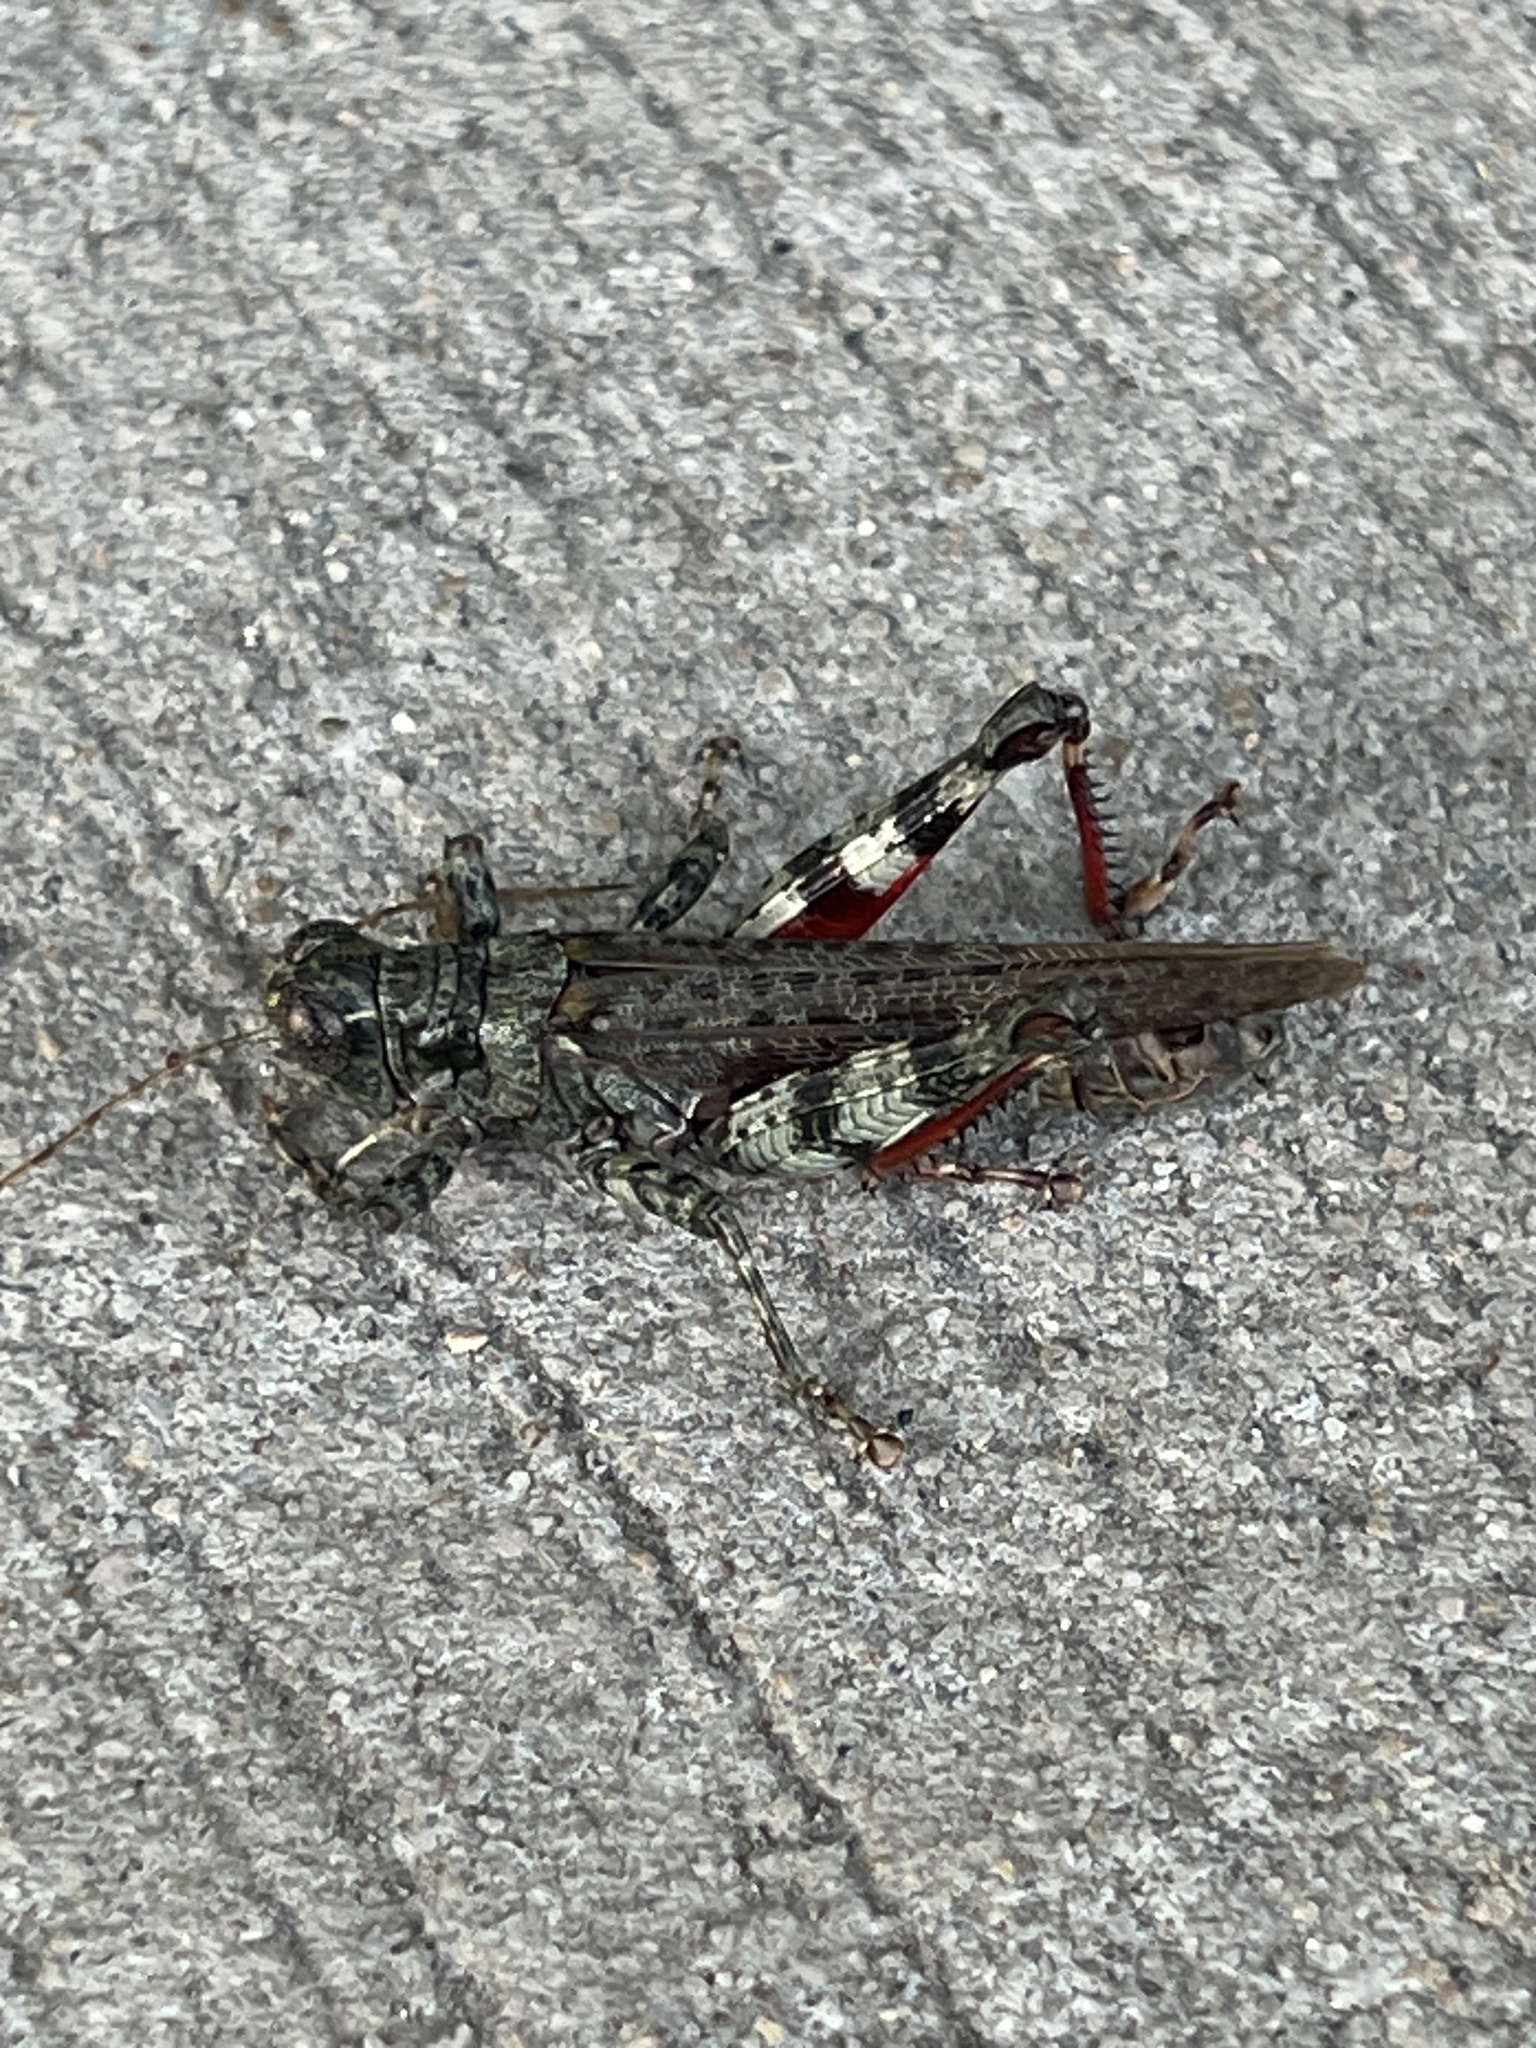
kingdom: Animalia
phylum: Arthropoda
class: Insecta
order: Orthoptera
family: Acrididae
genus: Melanoplus
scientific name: Melanoplus punctulatus
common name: Pine-tree spur-throat grasshopper
